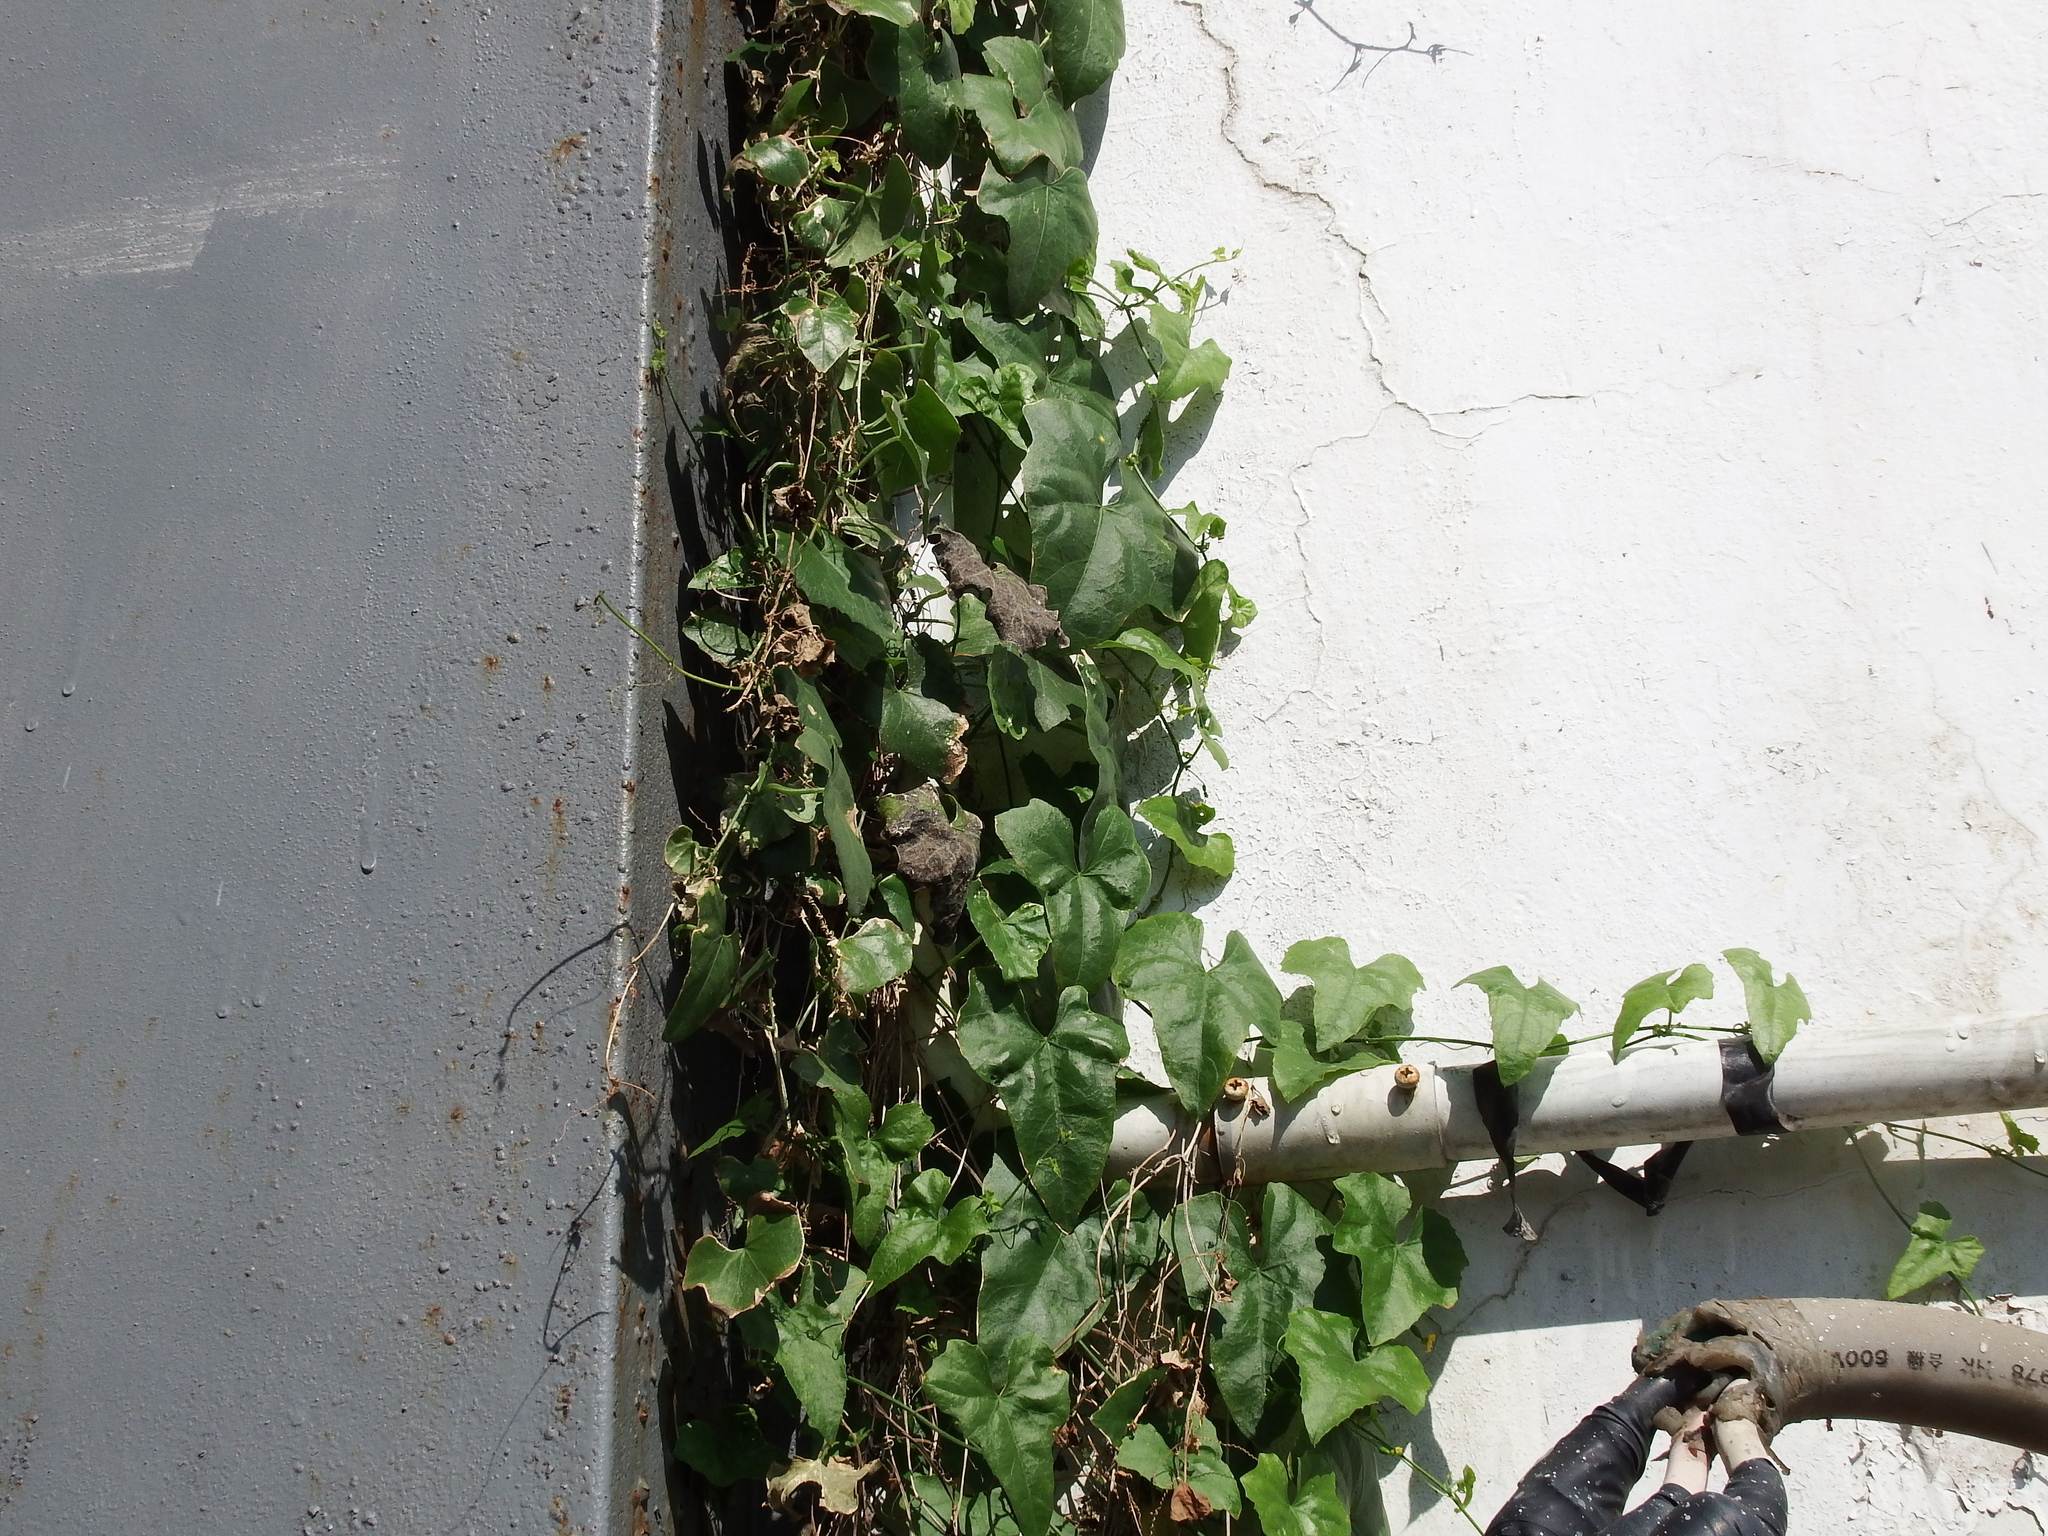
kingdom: Plantae
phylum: Tracheophyta
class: Magnoliopsida
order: Cucurbitales
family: Cucurbitaceae
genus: Melothria
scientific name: Melothria pendula
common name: Creeping-cucumber
